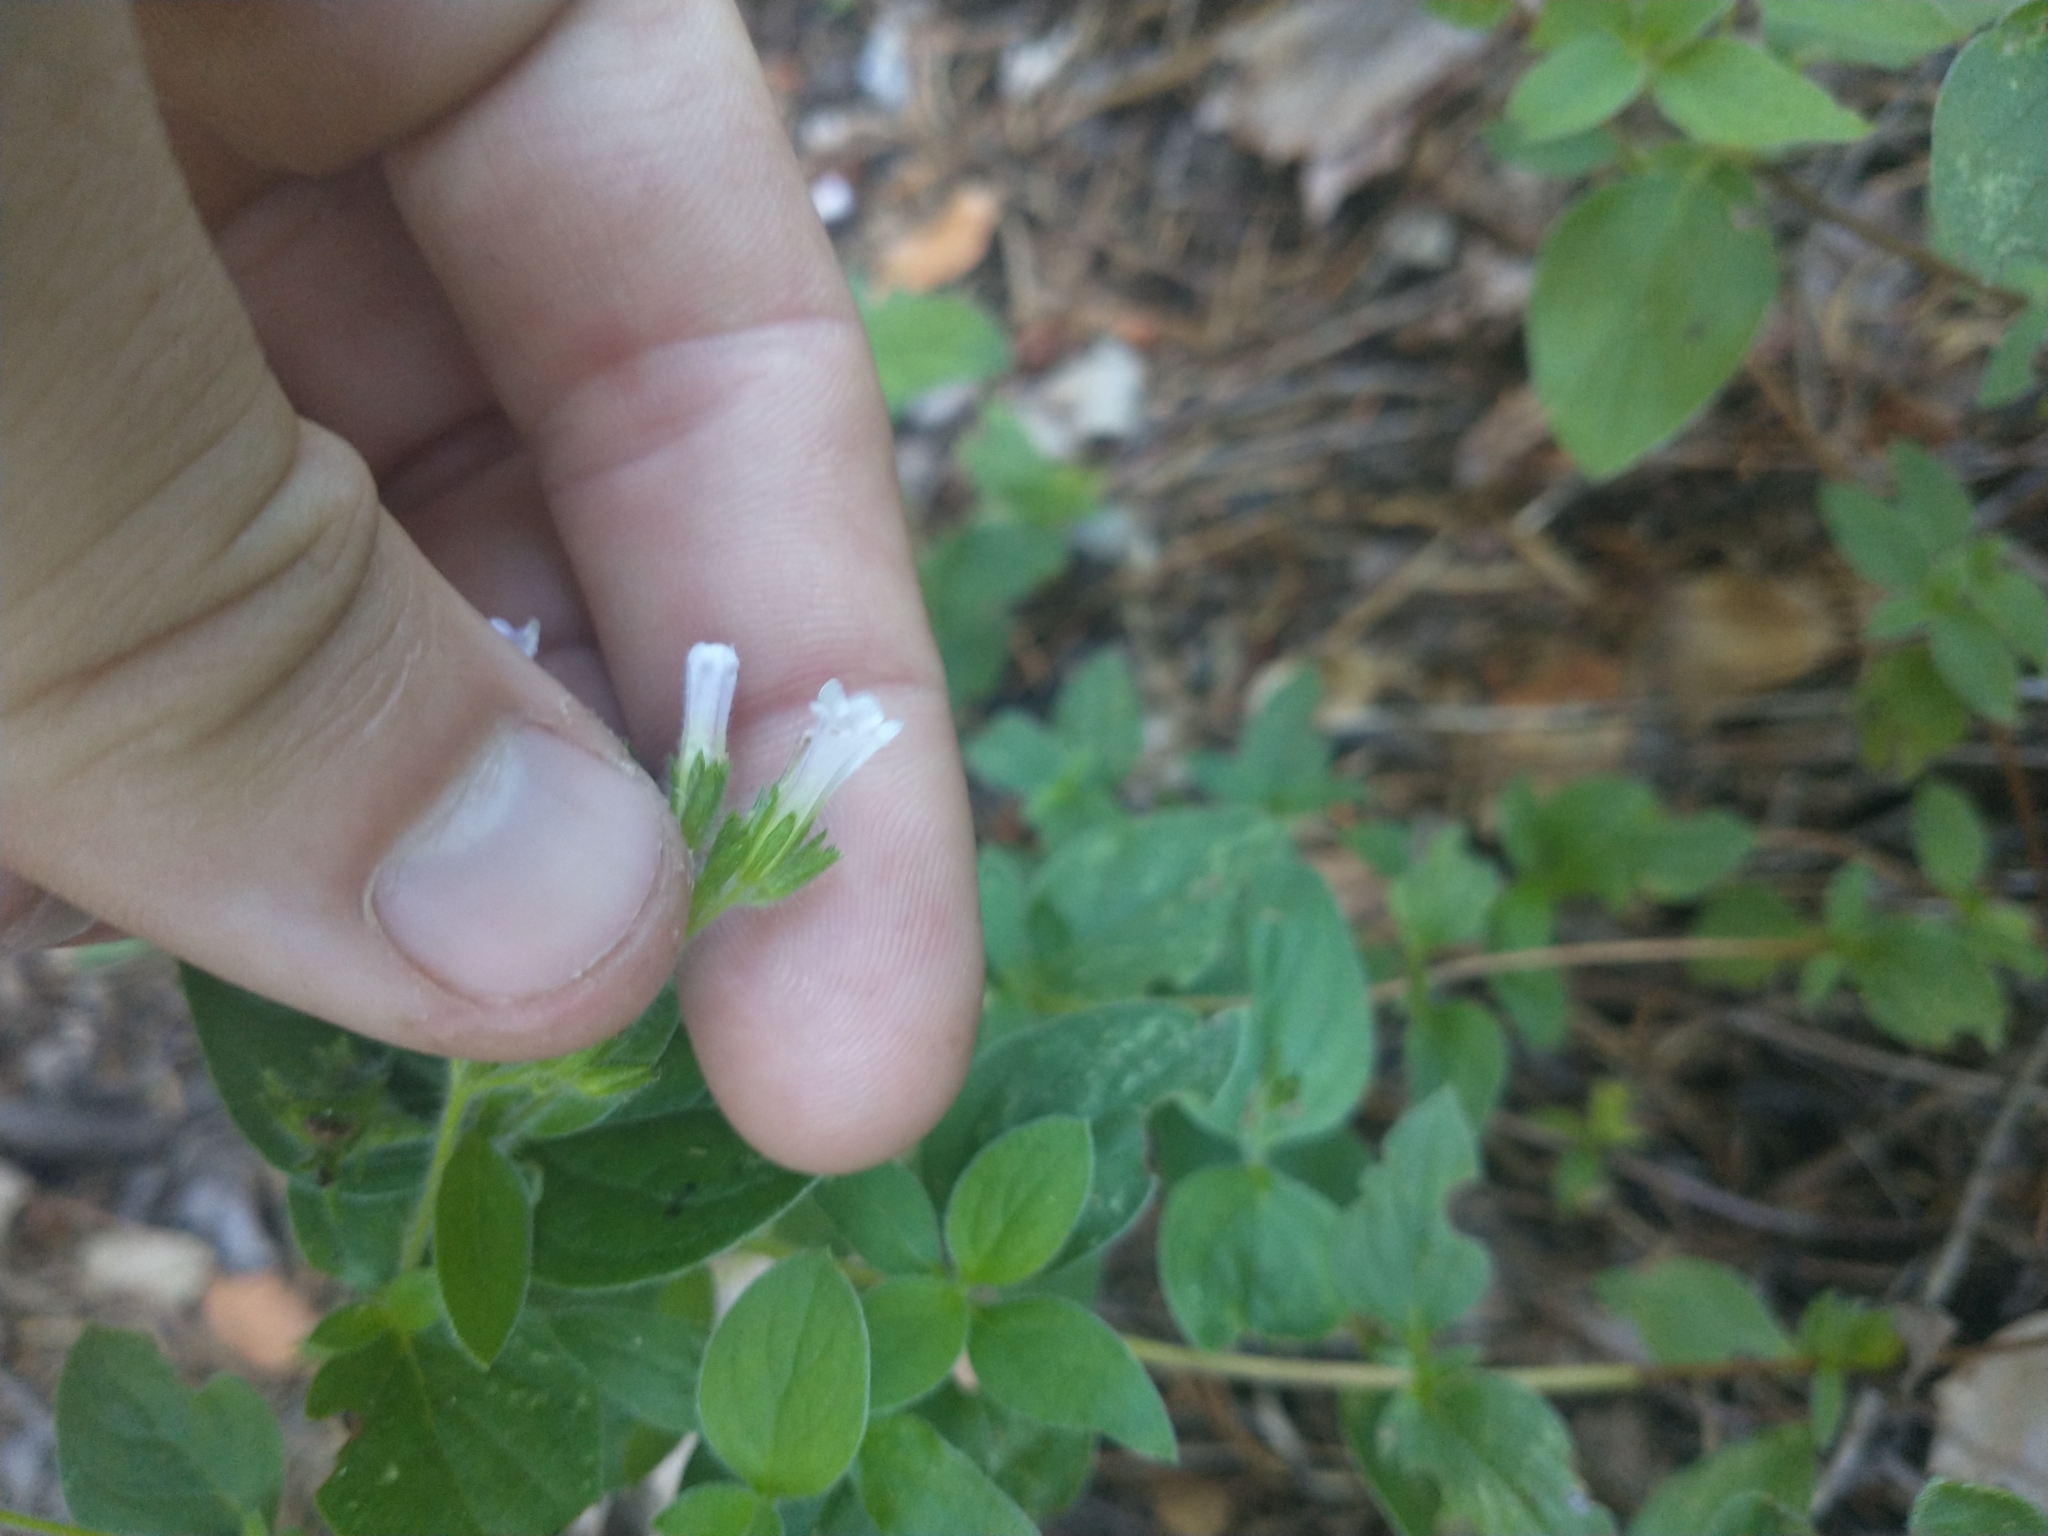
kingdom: Plantae
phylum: Tracheophyta
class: Magnoliopsida
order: Boraginales
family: Hydrophyllaceae
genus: Draperia
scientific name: Draperia systyla
